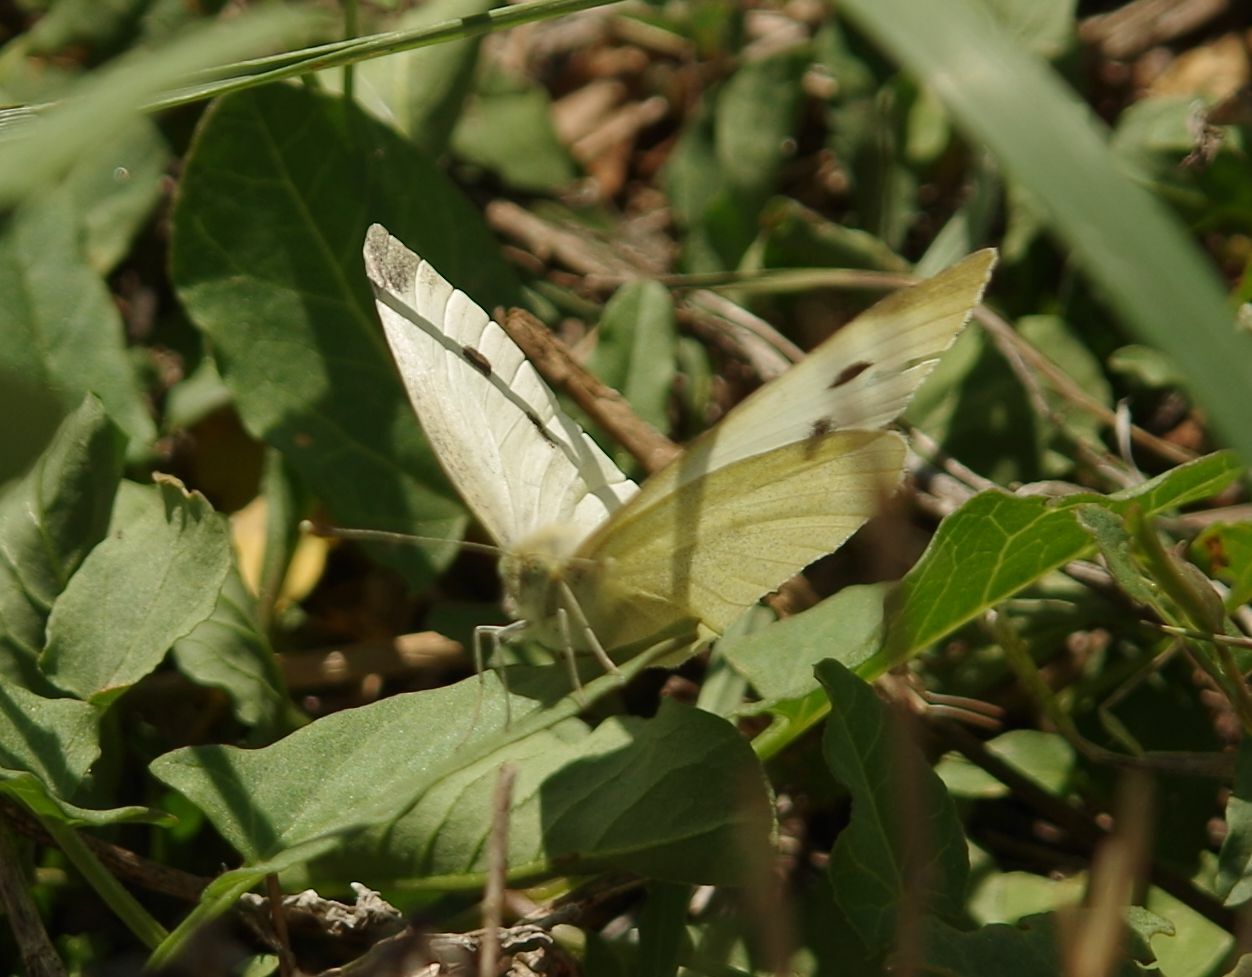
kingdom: Animalia
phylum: Arthropoda
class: Insecta
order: Lepidoptera
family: Pieridae
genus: Pieris
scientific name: Pieris rapae
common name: Small white
